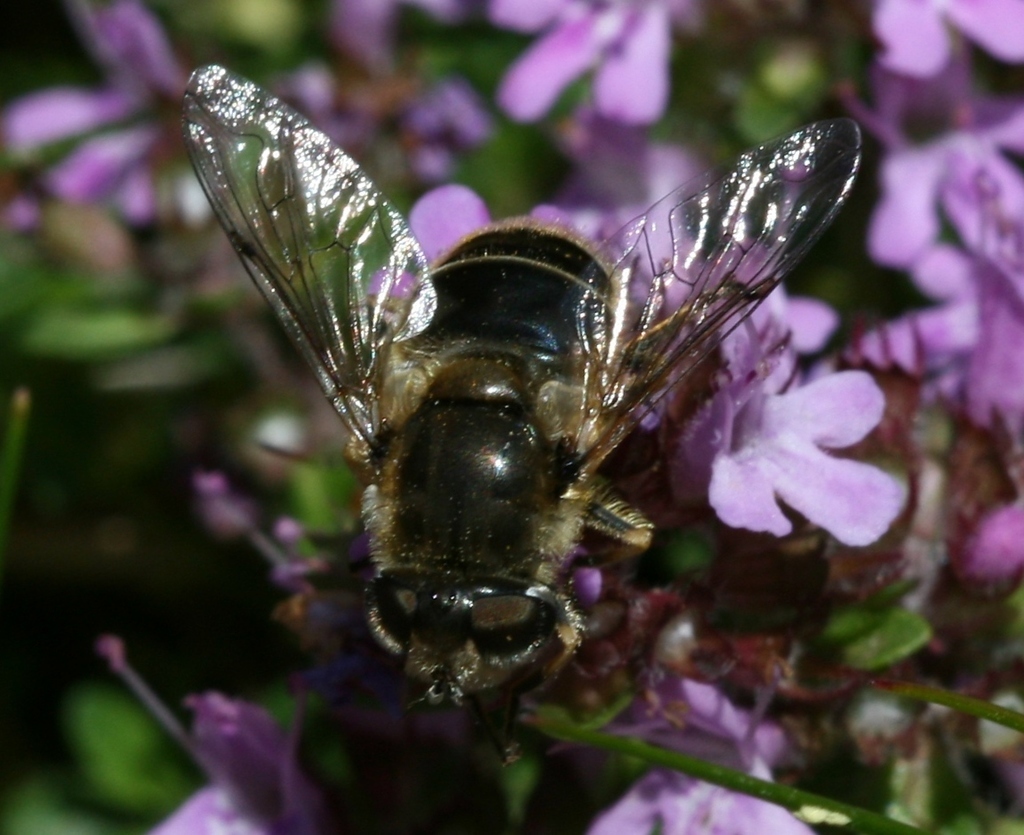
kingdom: Animalia
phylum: Arthropoda
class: Insecta
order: Diptera
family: Syrphidae
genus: Eristalis
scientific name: Eristalis arbustorum
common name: Hover fly
